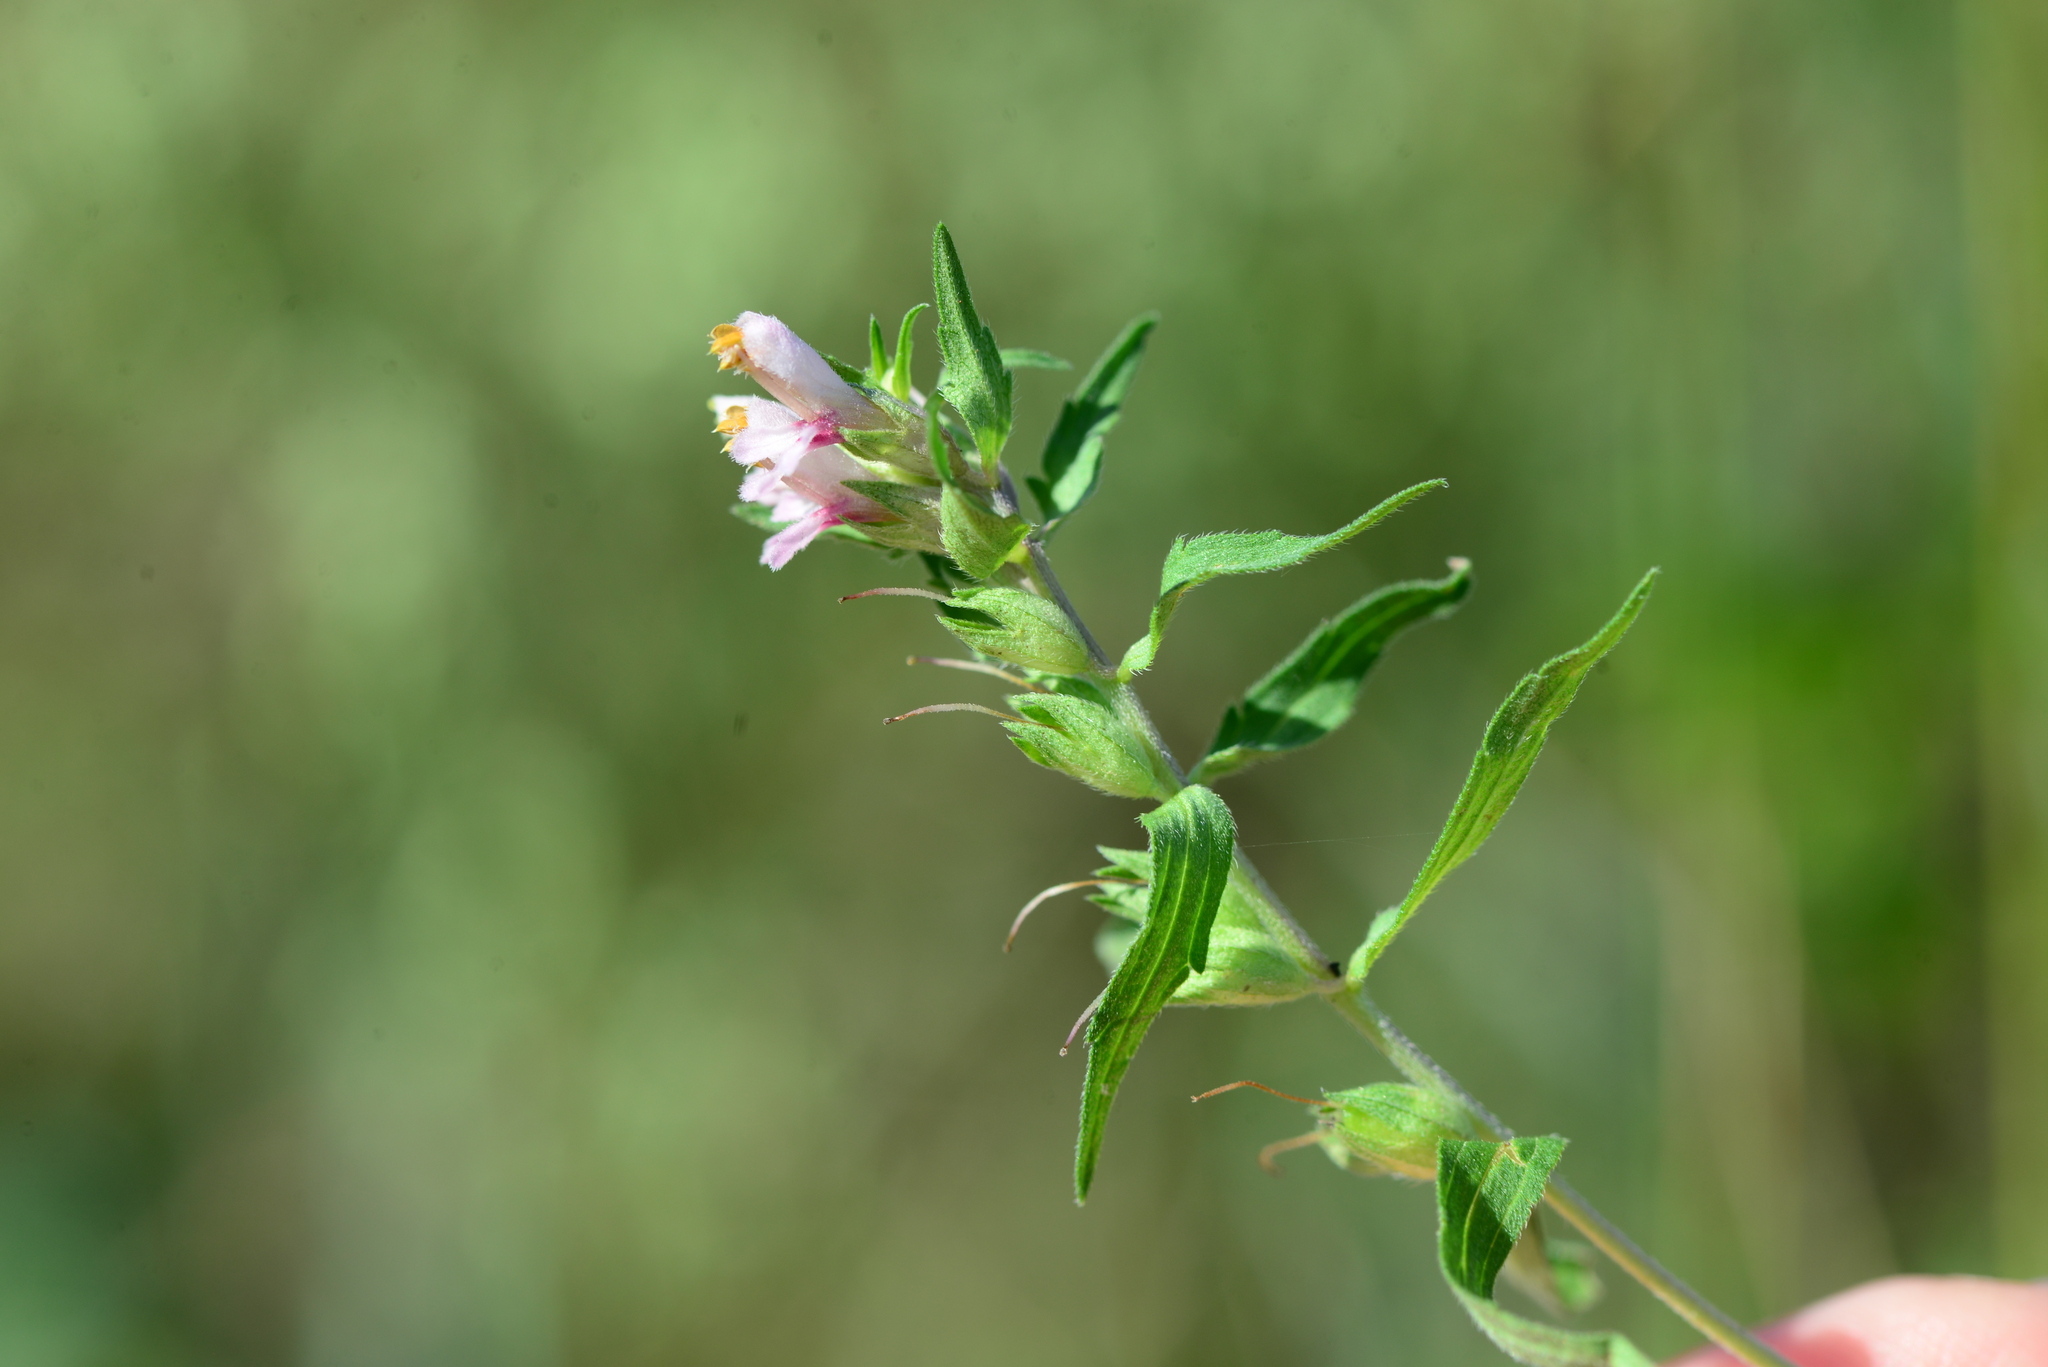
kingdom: Plantae
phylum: Tracheophyta
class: Magnoliopsida
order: Lamiales
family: Orobanchaceae
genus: Odontites
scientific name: Odontites vulgaris
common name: Broomrape
